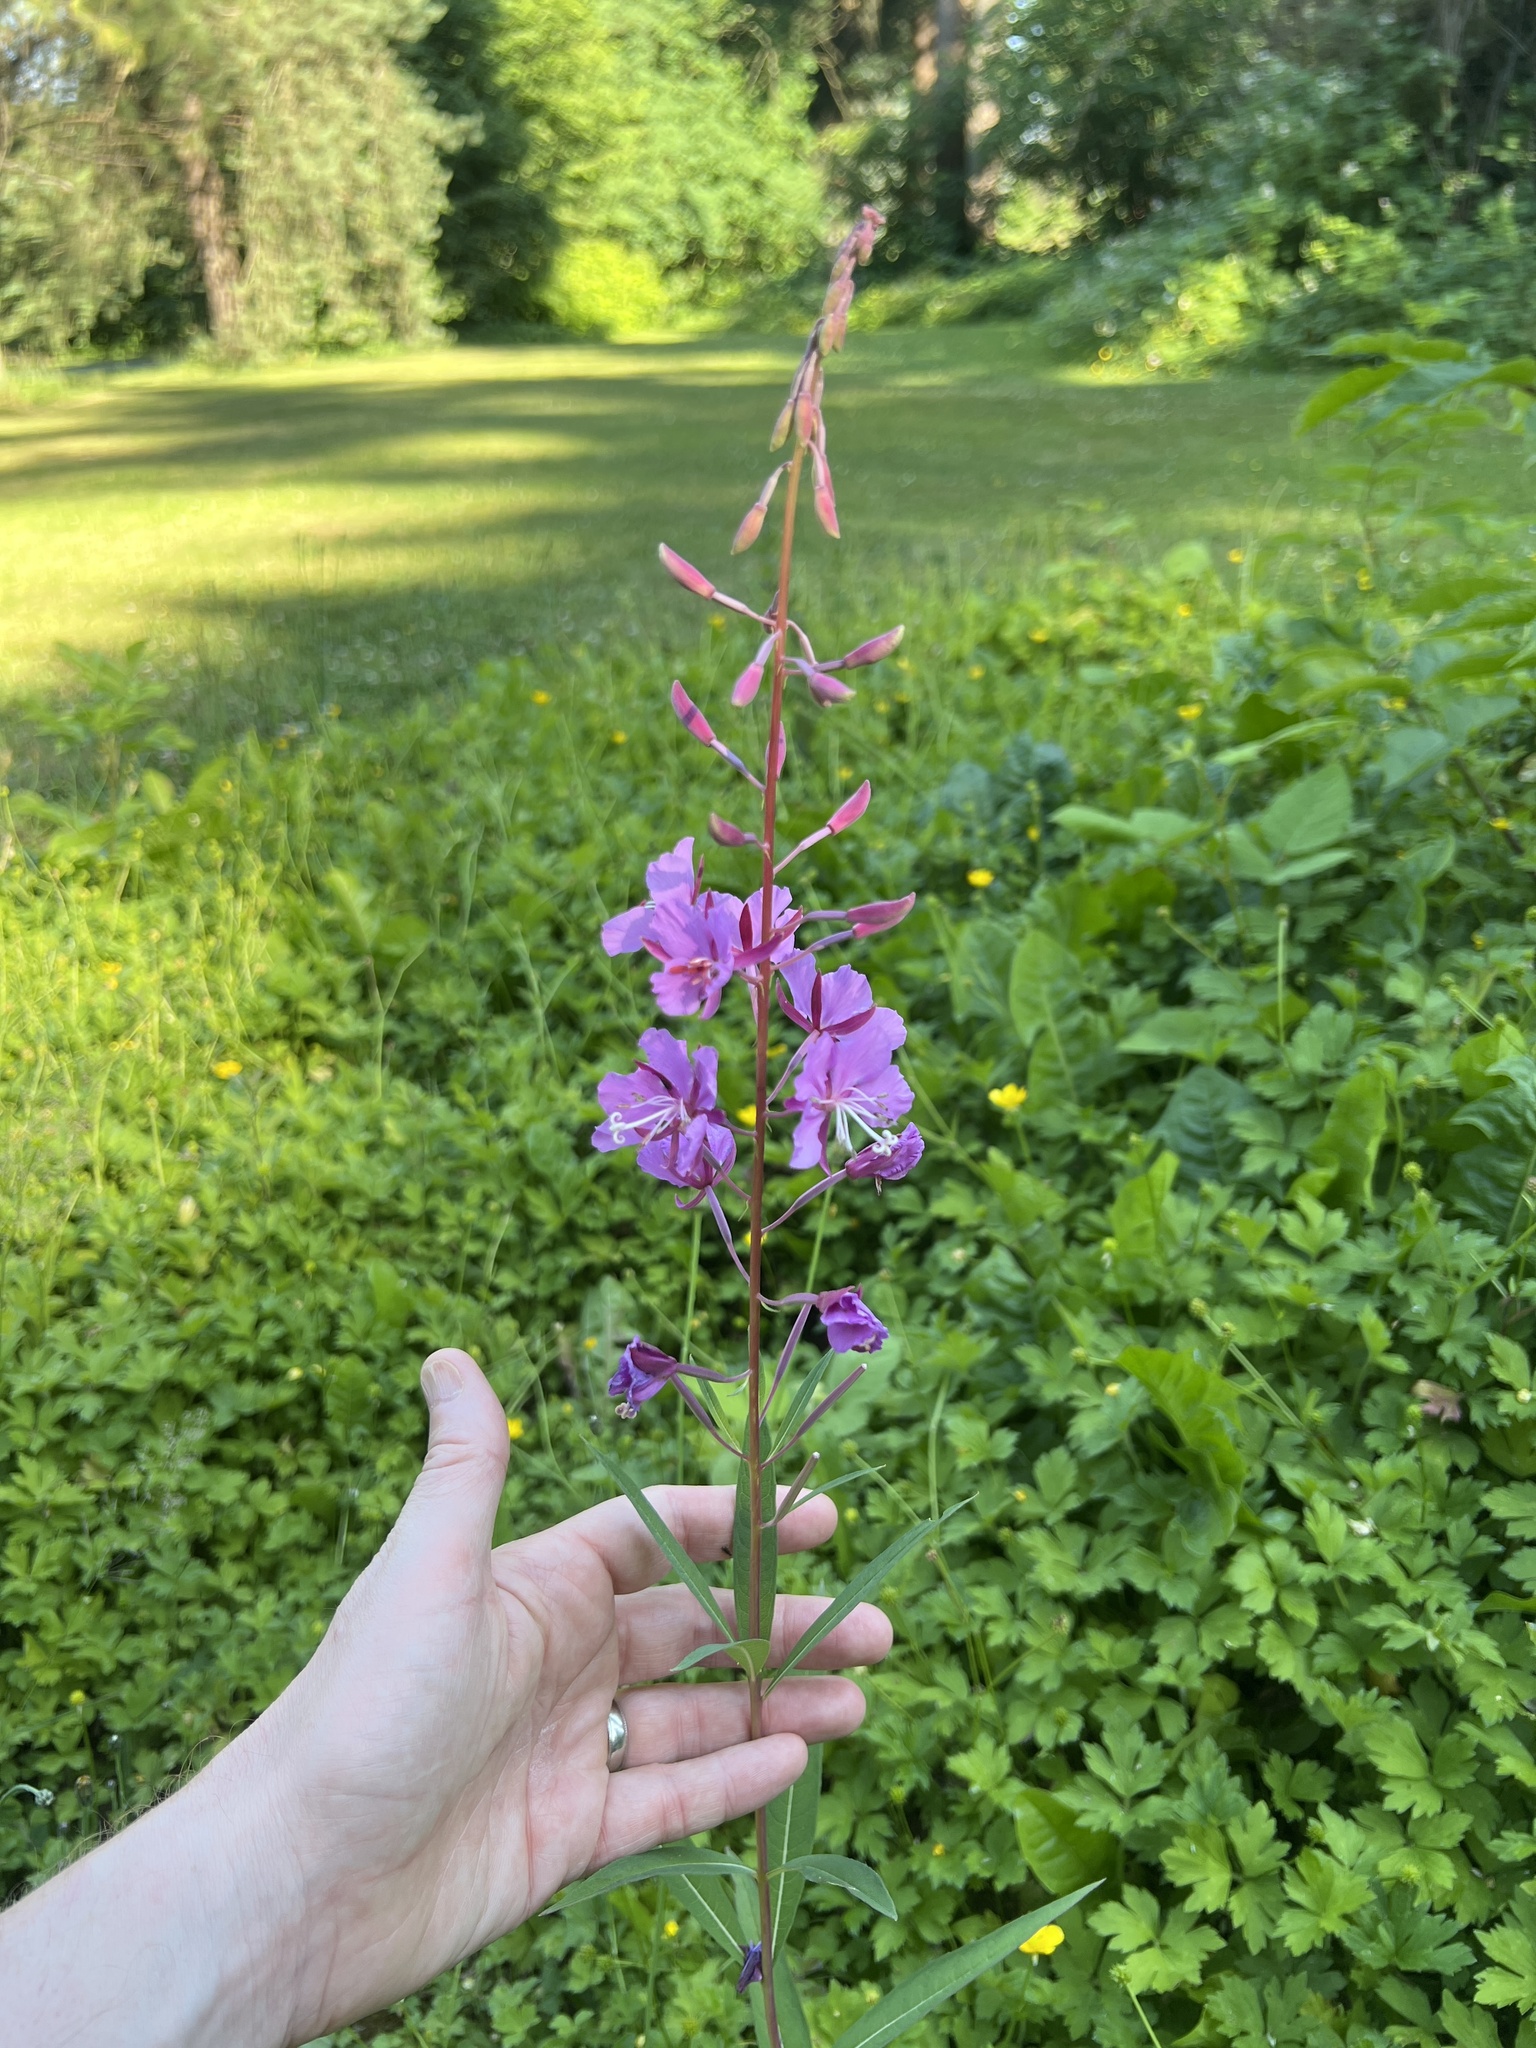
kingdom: Plantae
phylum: Tracheophyta
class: Magnoliopsida
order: Myrtales
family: Onagraceae
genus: Chamaenerion
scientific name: Chamaenerion angustifolium
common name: Fireweed
